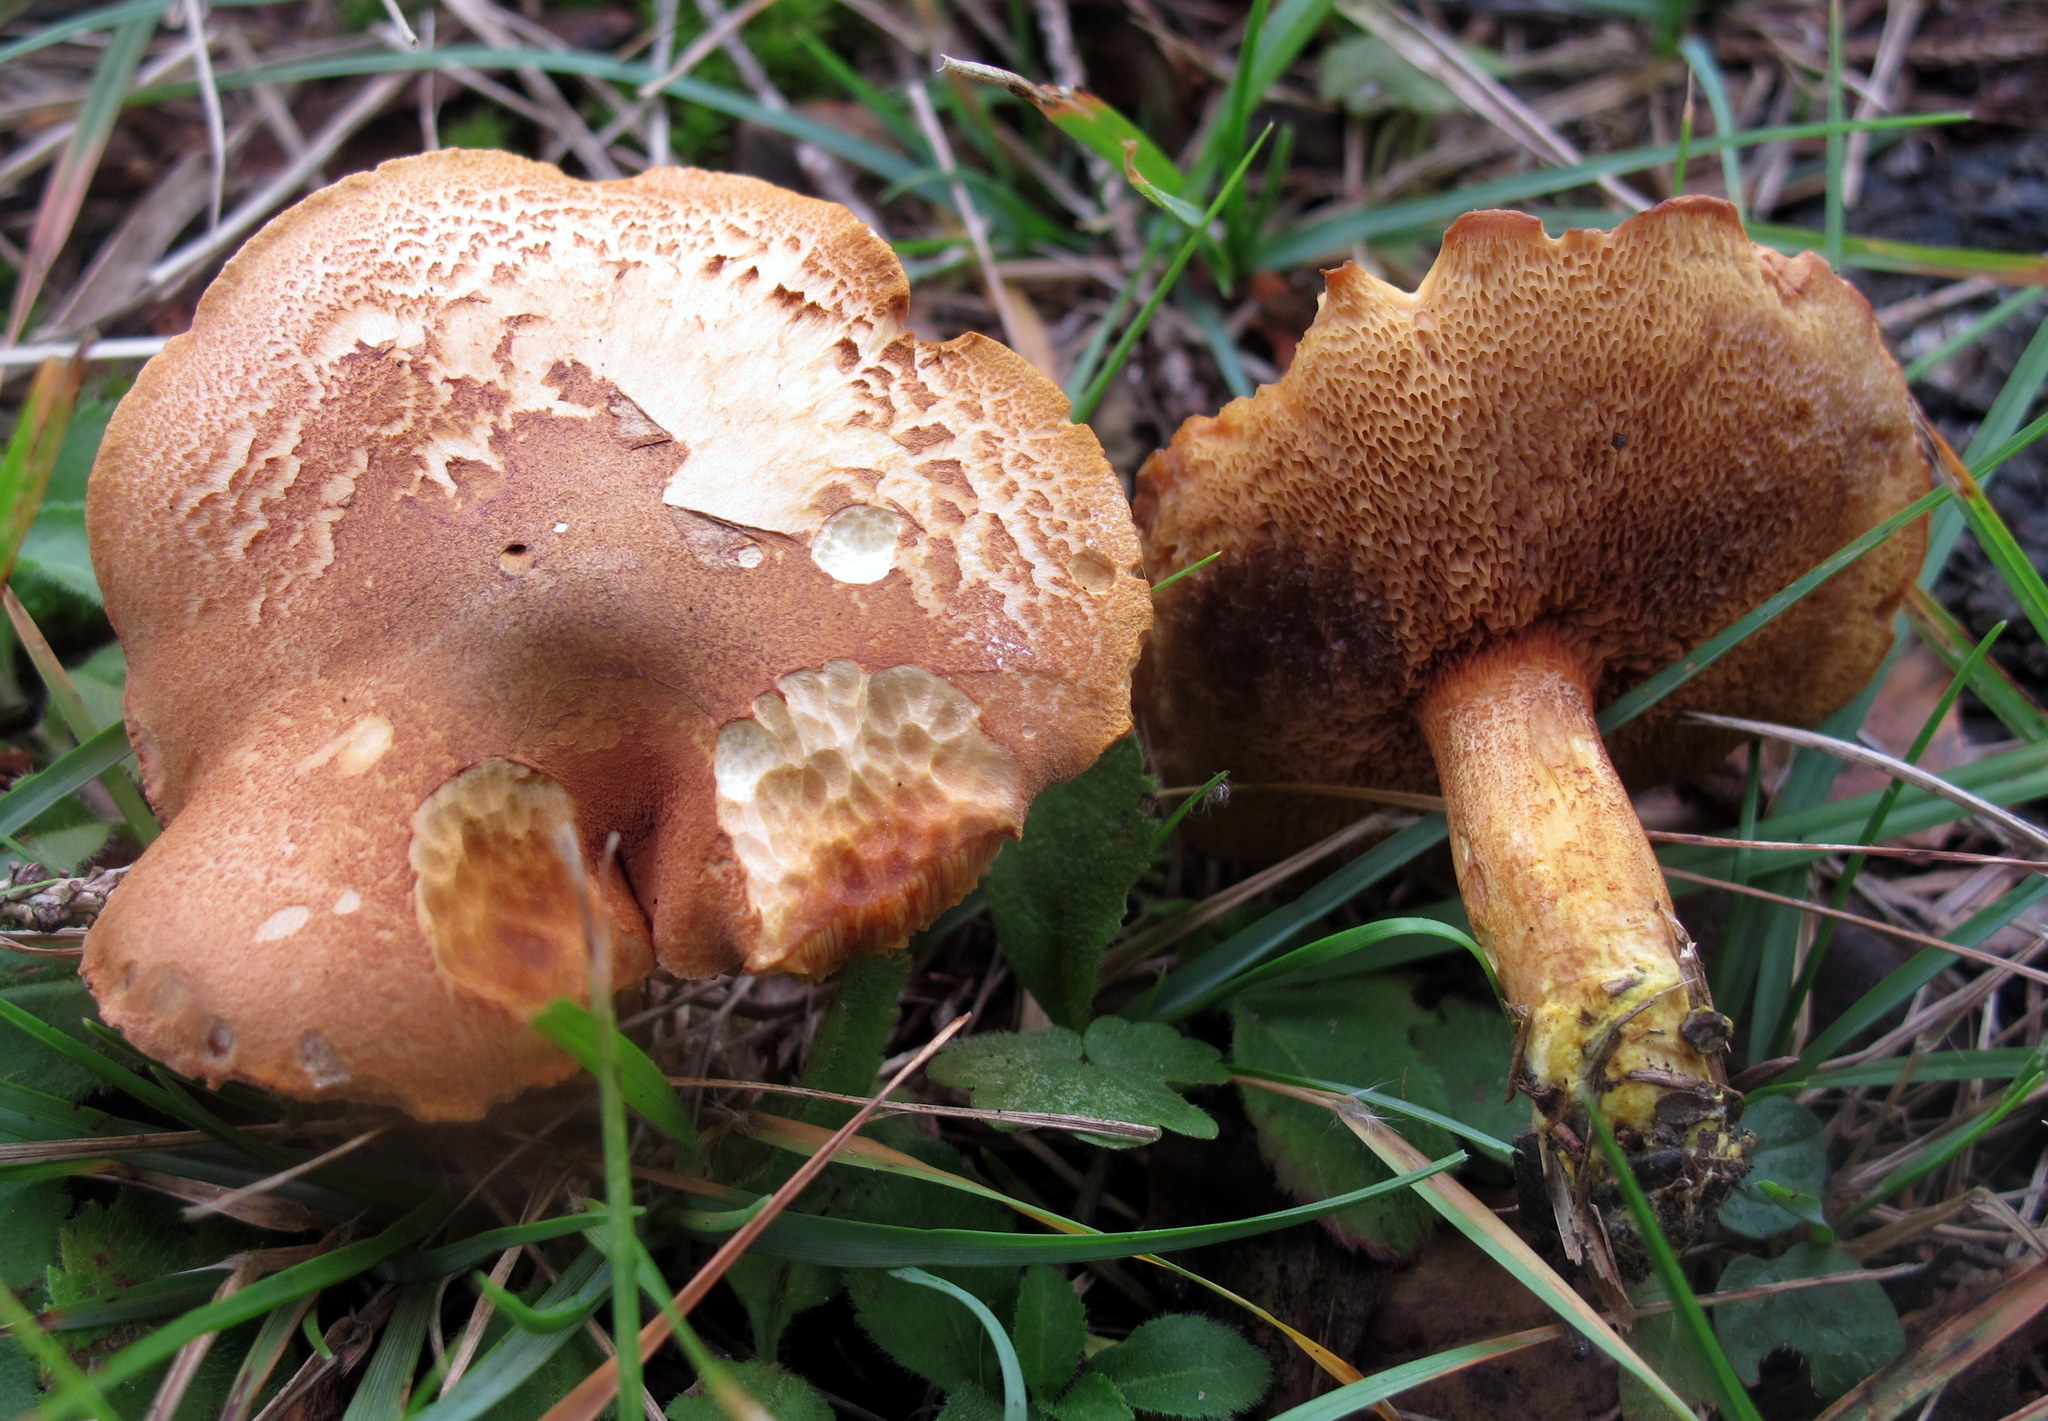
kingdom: Fungi
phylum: Basidiomycota
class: Agaricomycetes
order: Boletales
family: Boletaceae
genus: Chalciporus
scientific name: Chalciporus piperatus
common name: Peppery bolete
